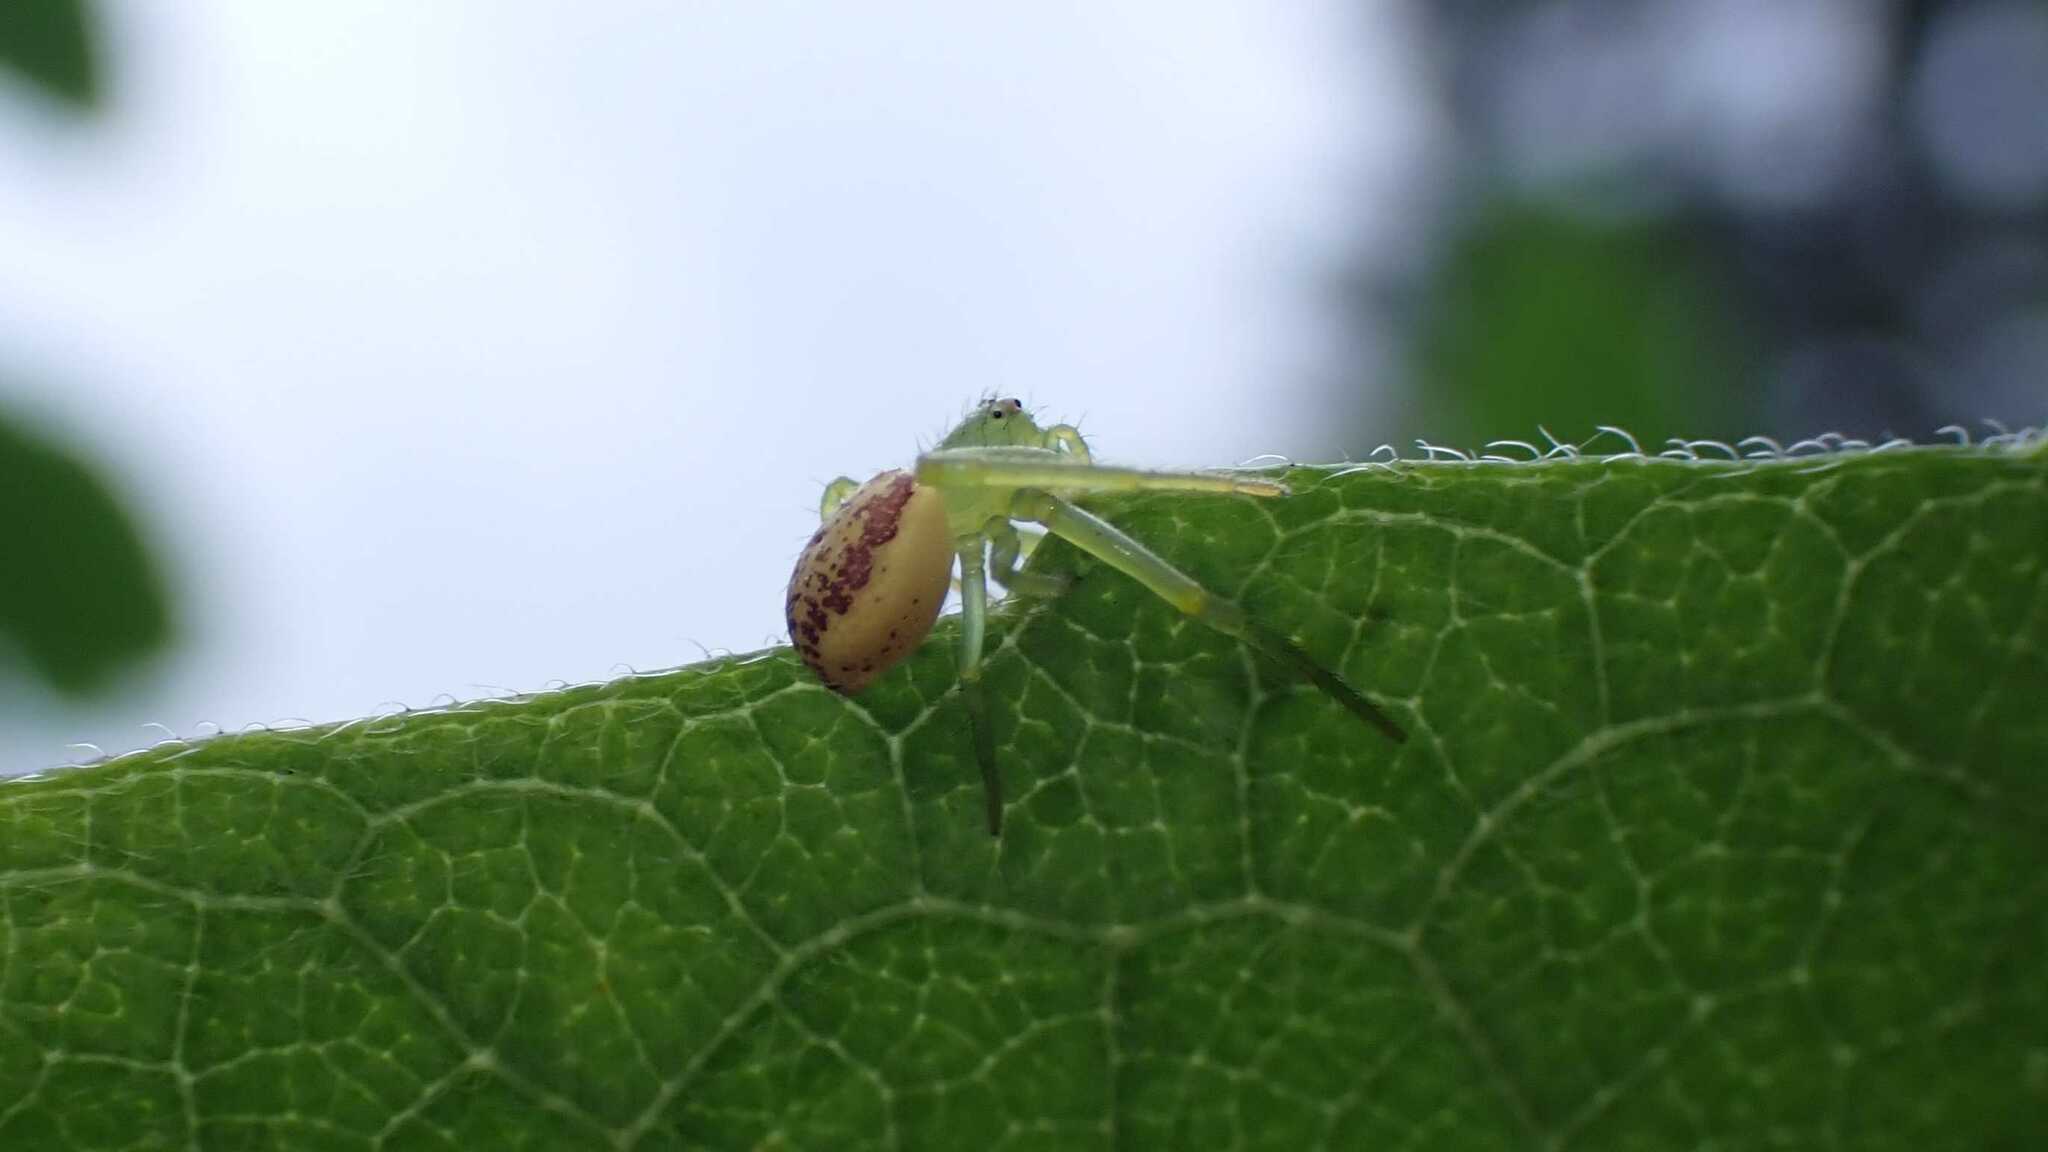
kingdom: Animalia
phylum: Arthropoda
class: Arachnida
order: Araneae
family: Thomisidae
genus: Diaea
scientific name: Diaea dorsata
